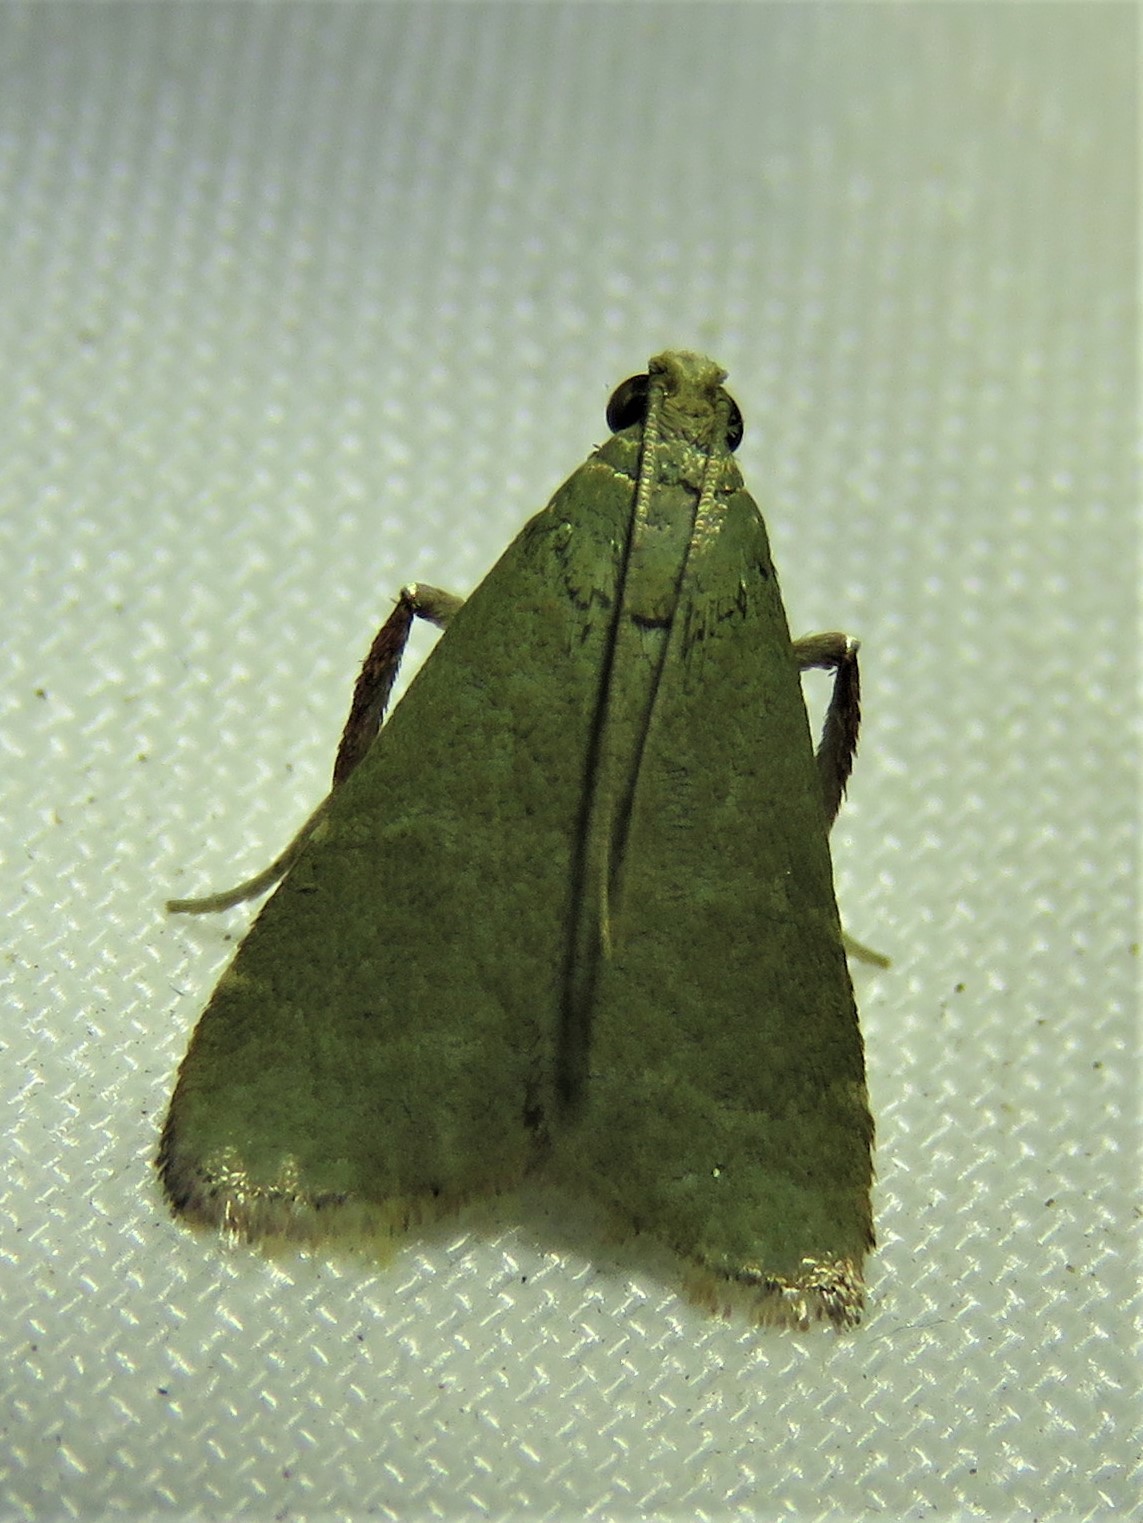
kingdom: Animalia
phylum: Arthropoda
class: Insecta
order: Lepidoptera
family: Pyralidae
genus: Arta
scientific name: Arta olivalis
